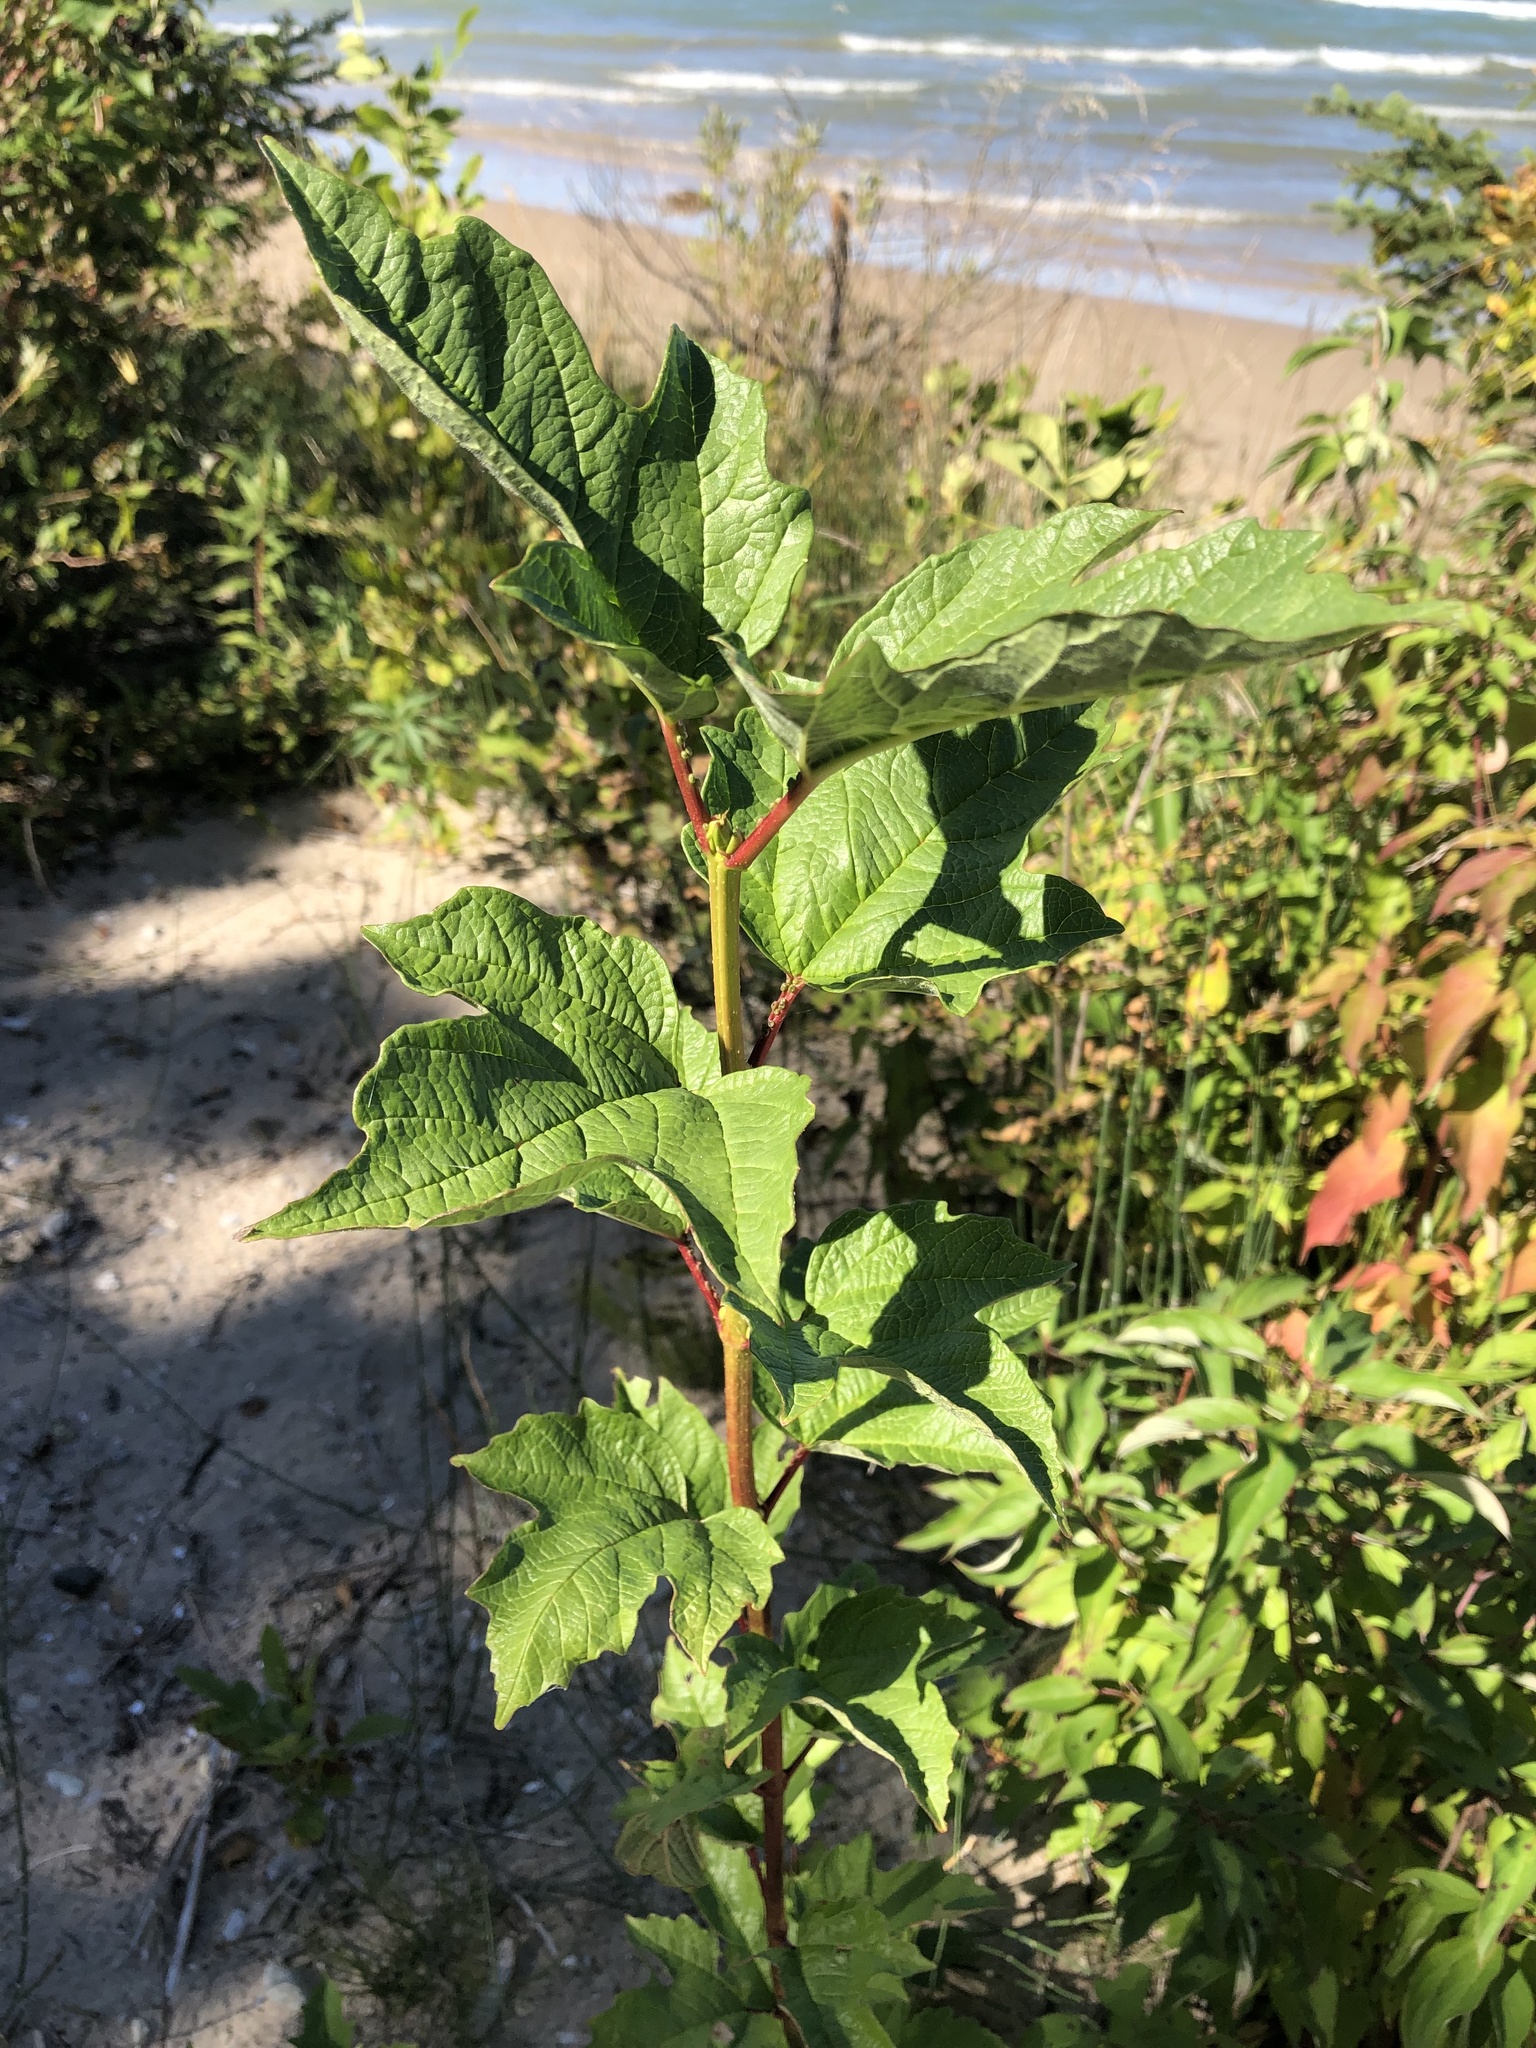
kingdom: Plantae
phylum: Tracheophyta
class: Magnoliopsida
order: Dipsacales
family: Viburnaceae
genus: Viburnum
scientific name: Viburnum opulus
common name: Guelder-rose
